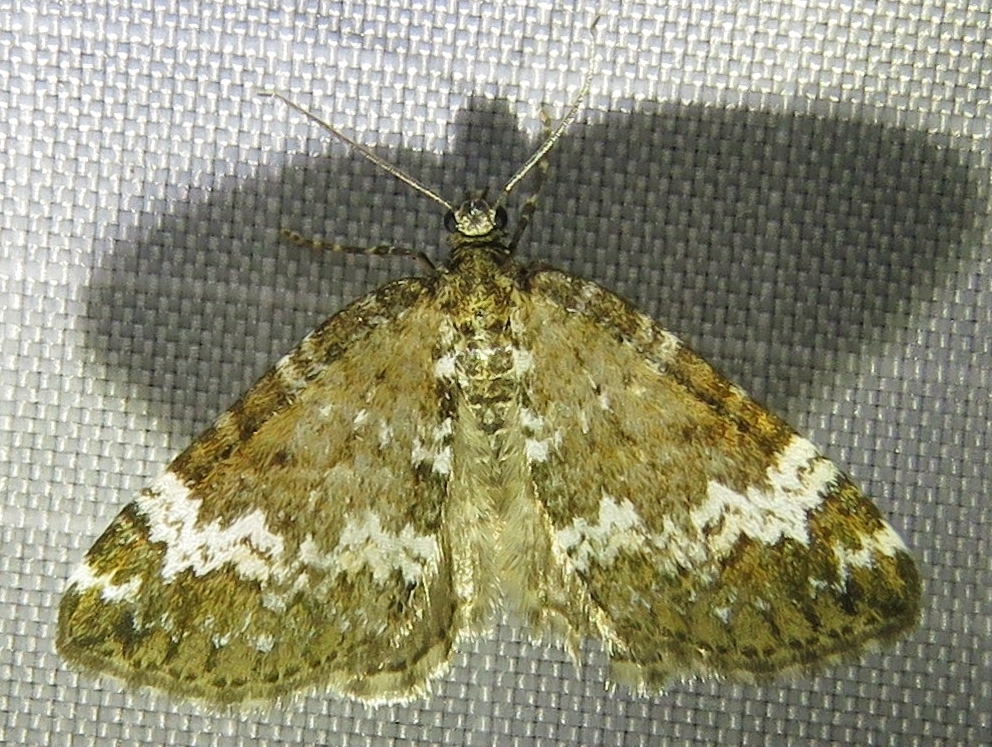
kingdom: Animalia
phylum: Arthropoda
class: Insecta
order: Lepidoptera
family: Geometridae
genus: Perizoma
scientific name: Perizoma alchemillata
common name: Small rivulet
